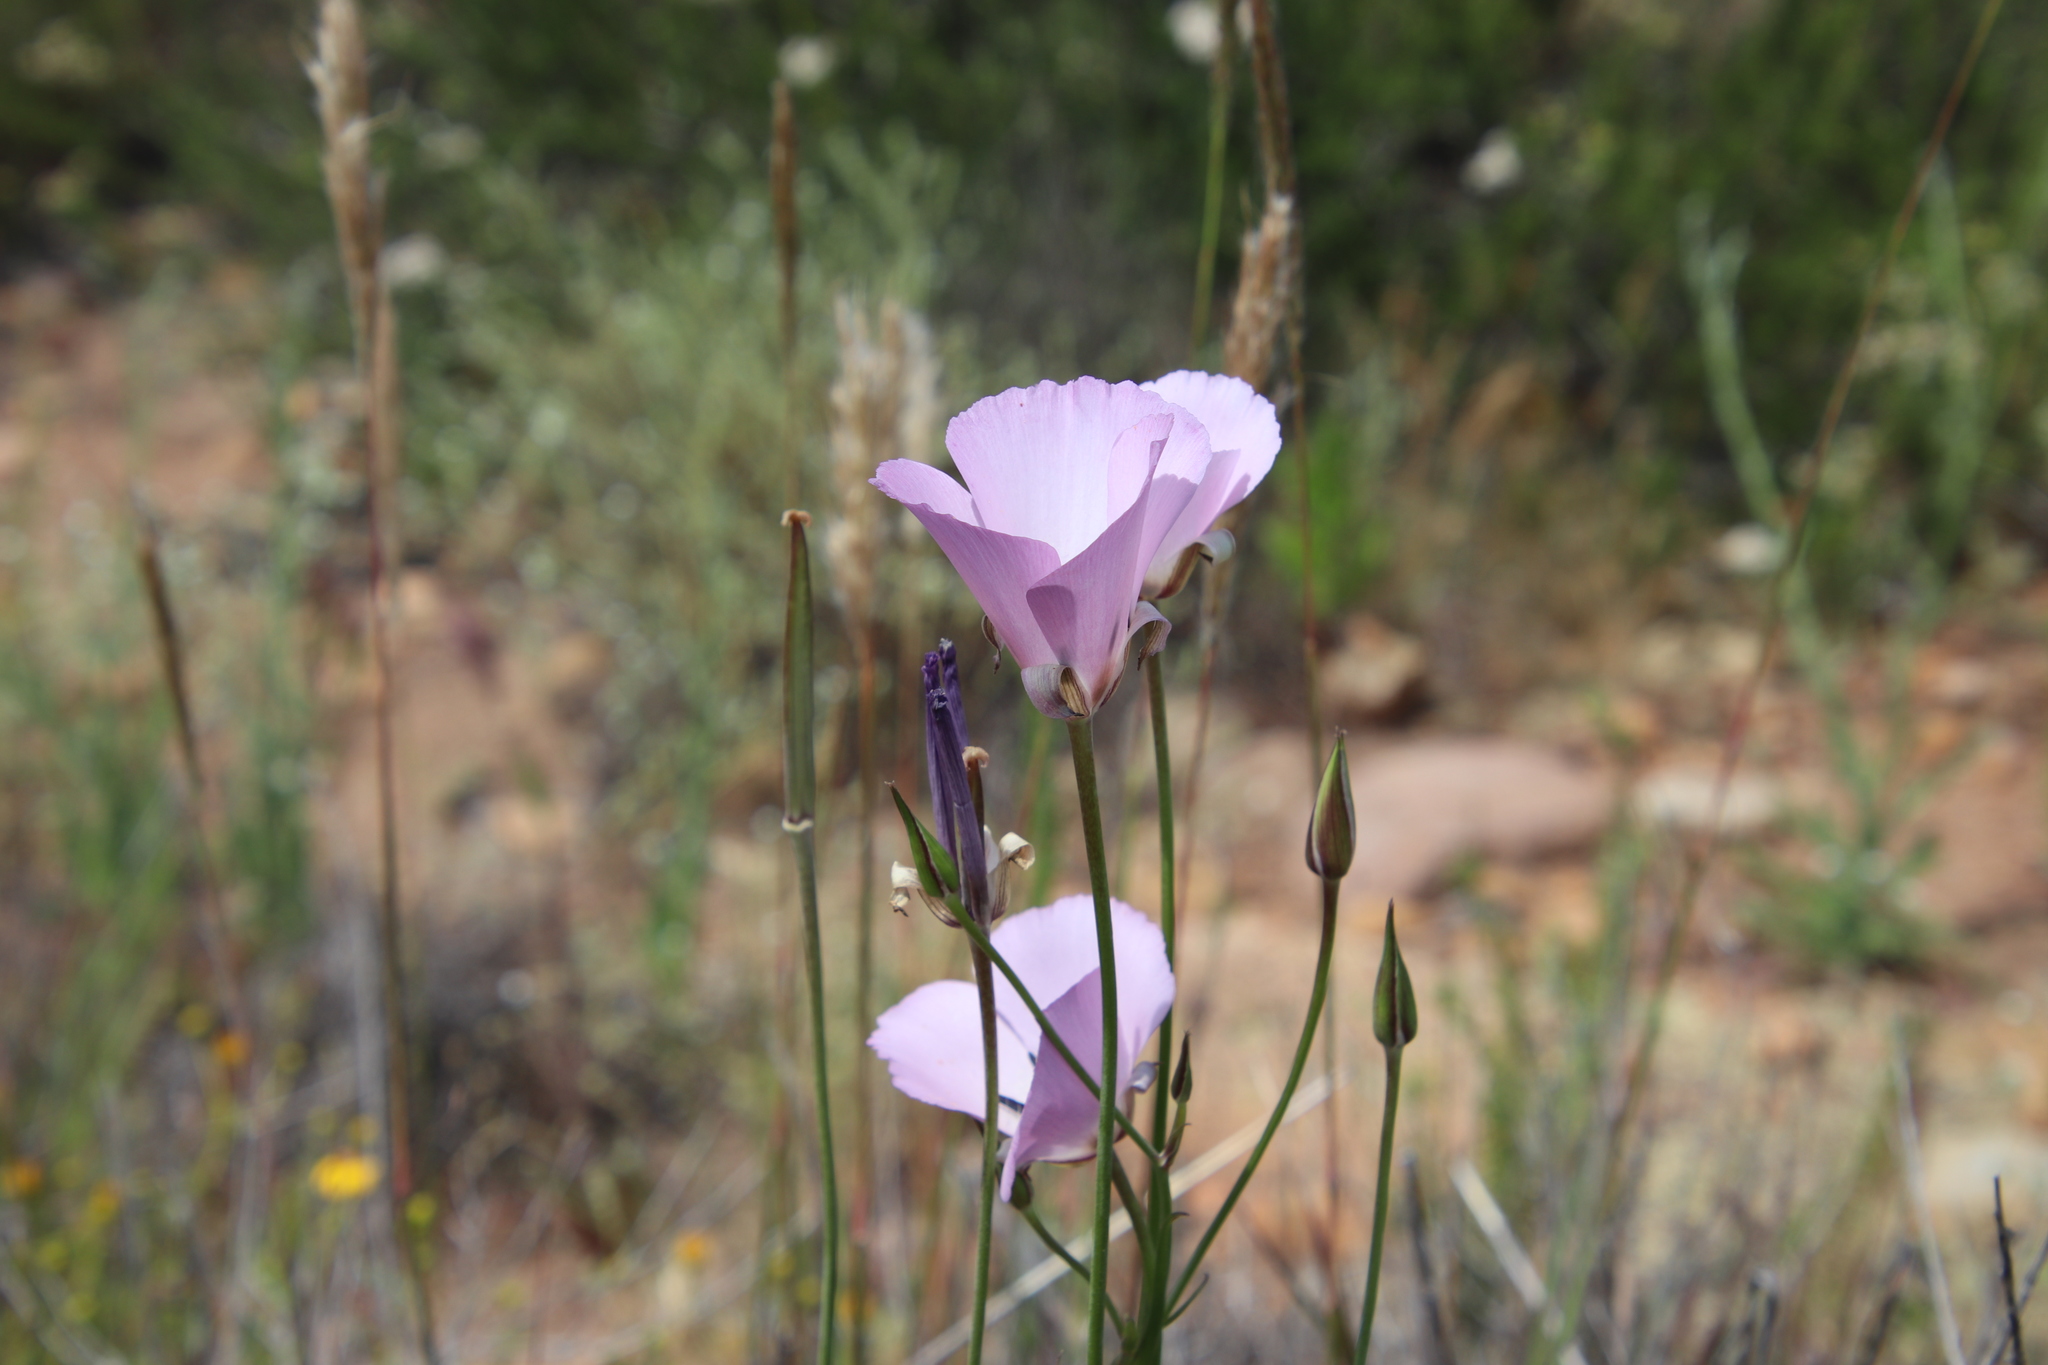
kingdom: Plantae
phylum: Tracheophyta
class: Liliopsida
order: Liliales
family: Liliaceae
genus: Calochortus
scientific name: Calochortus splendens
